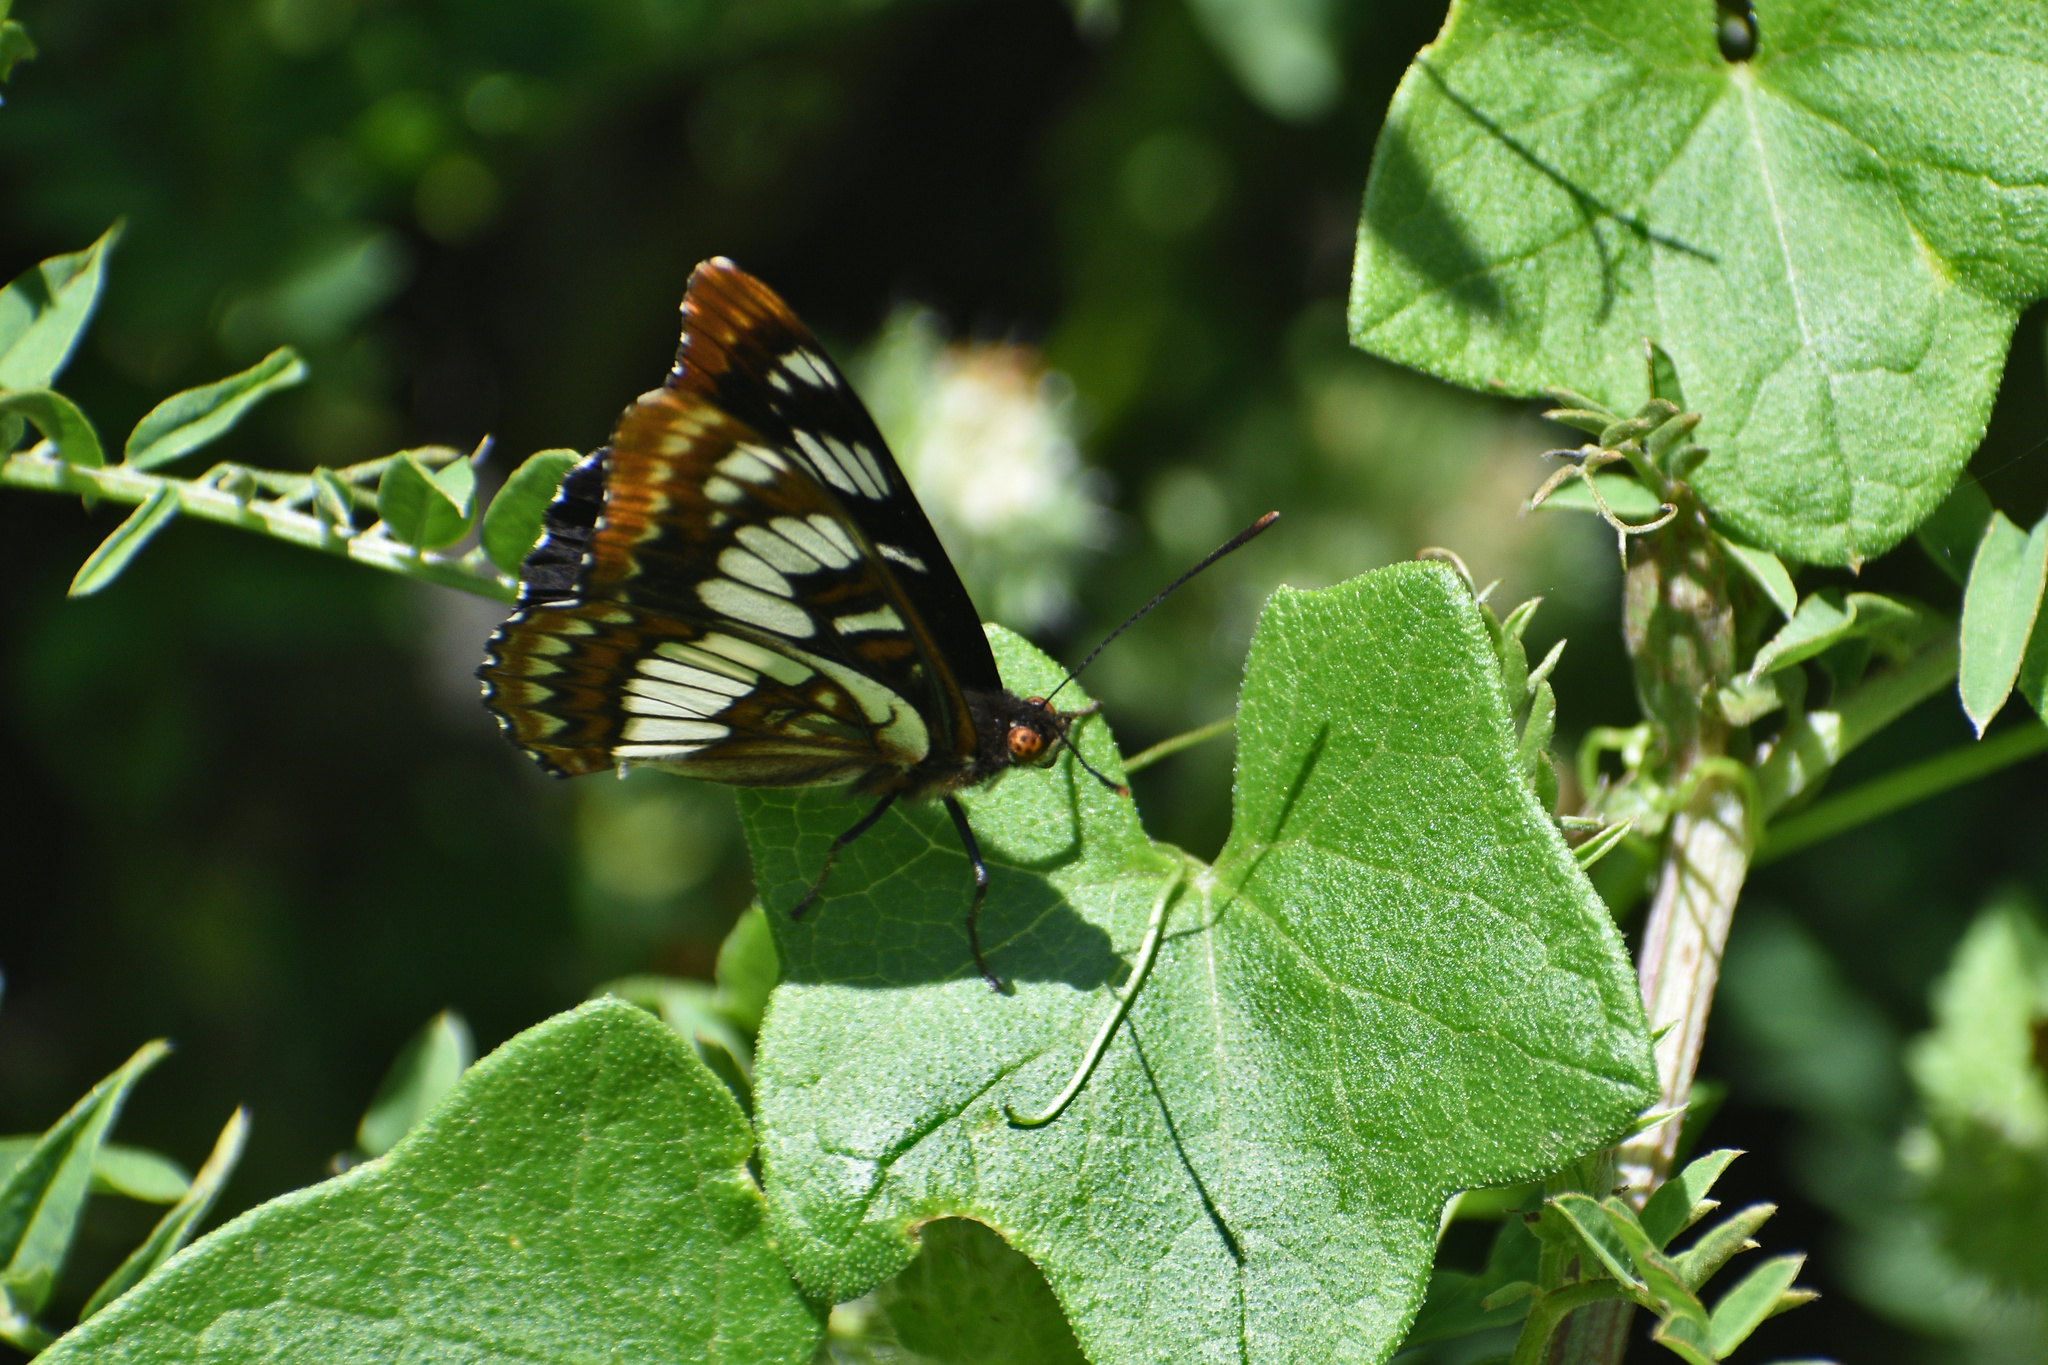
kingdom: Animalia
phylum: Arthropoda
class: Insecta
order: Lepidoptera
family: Nymphalidae
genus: Limenitis
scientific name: Limenitis lorquini
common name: Lorquin's admiral
